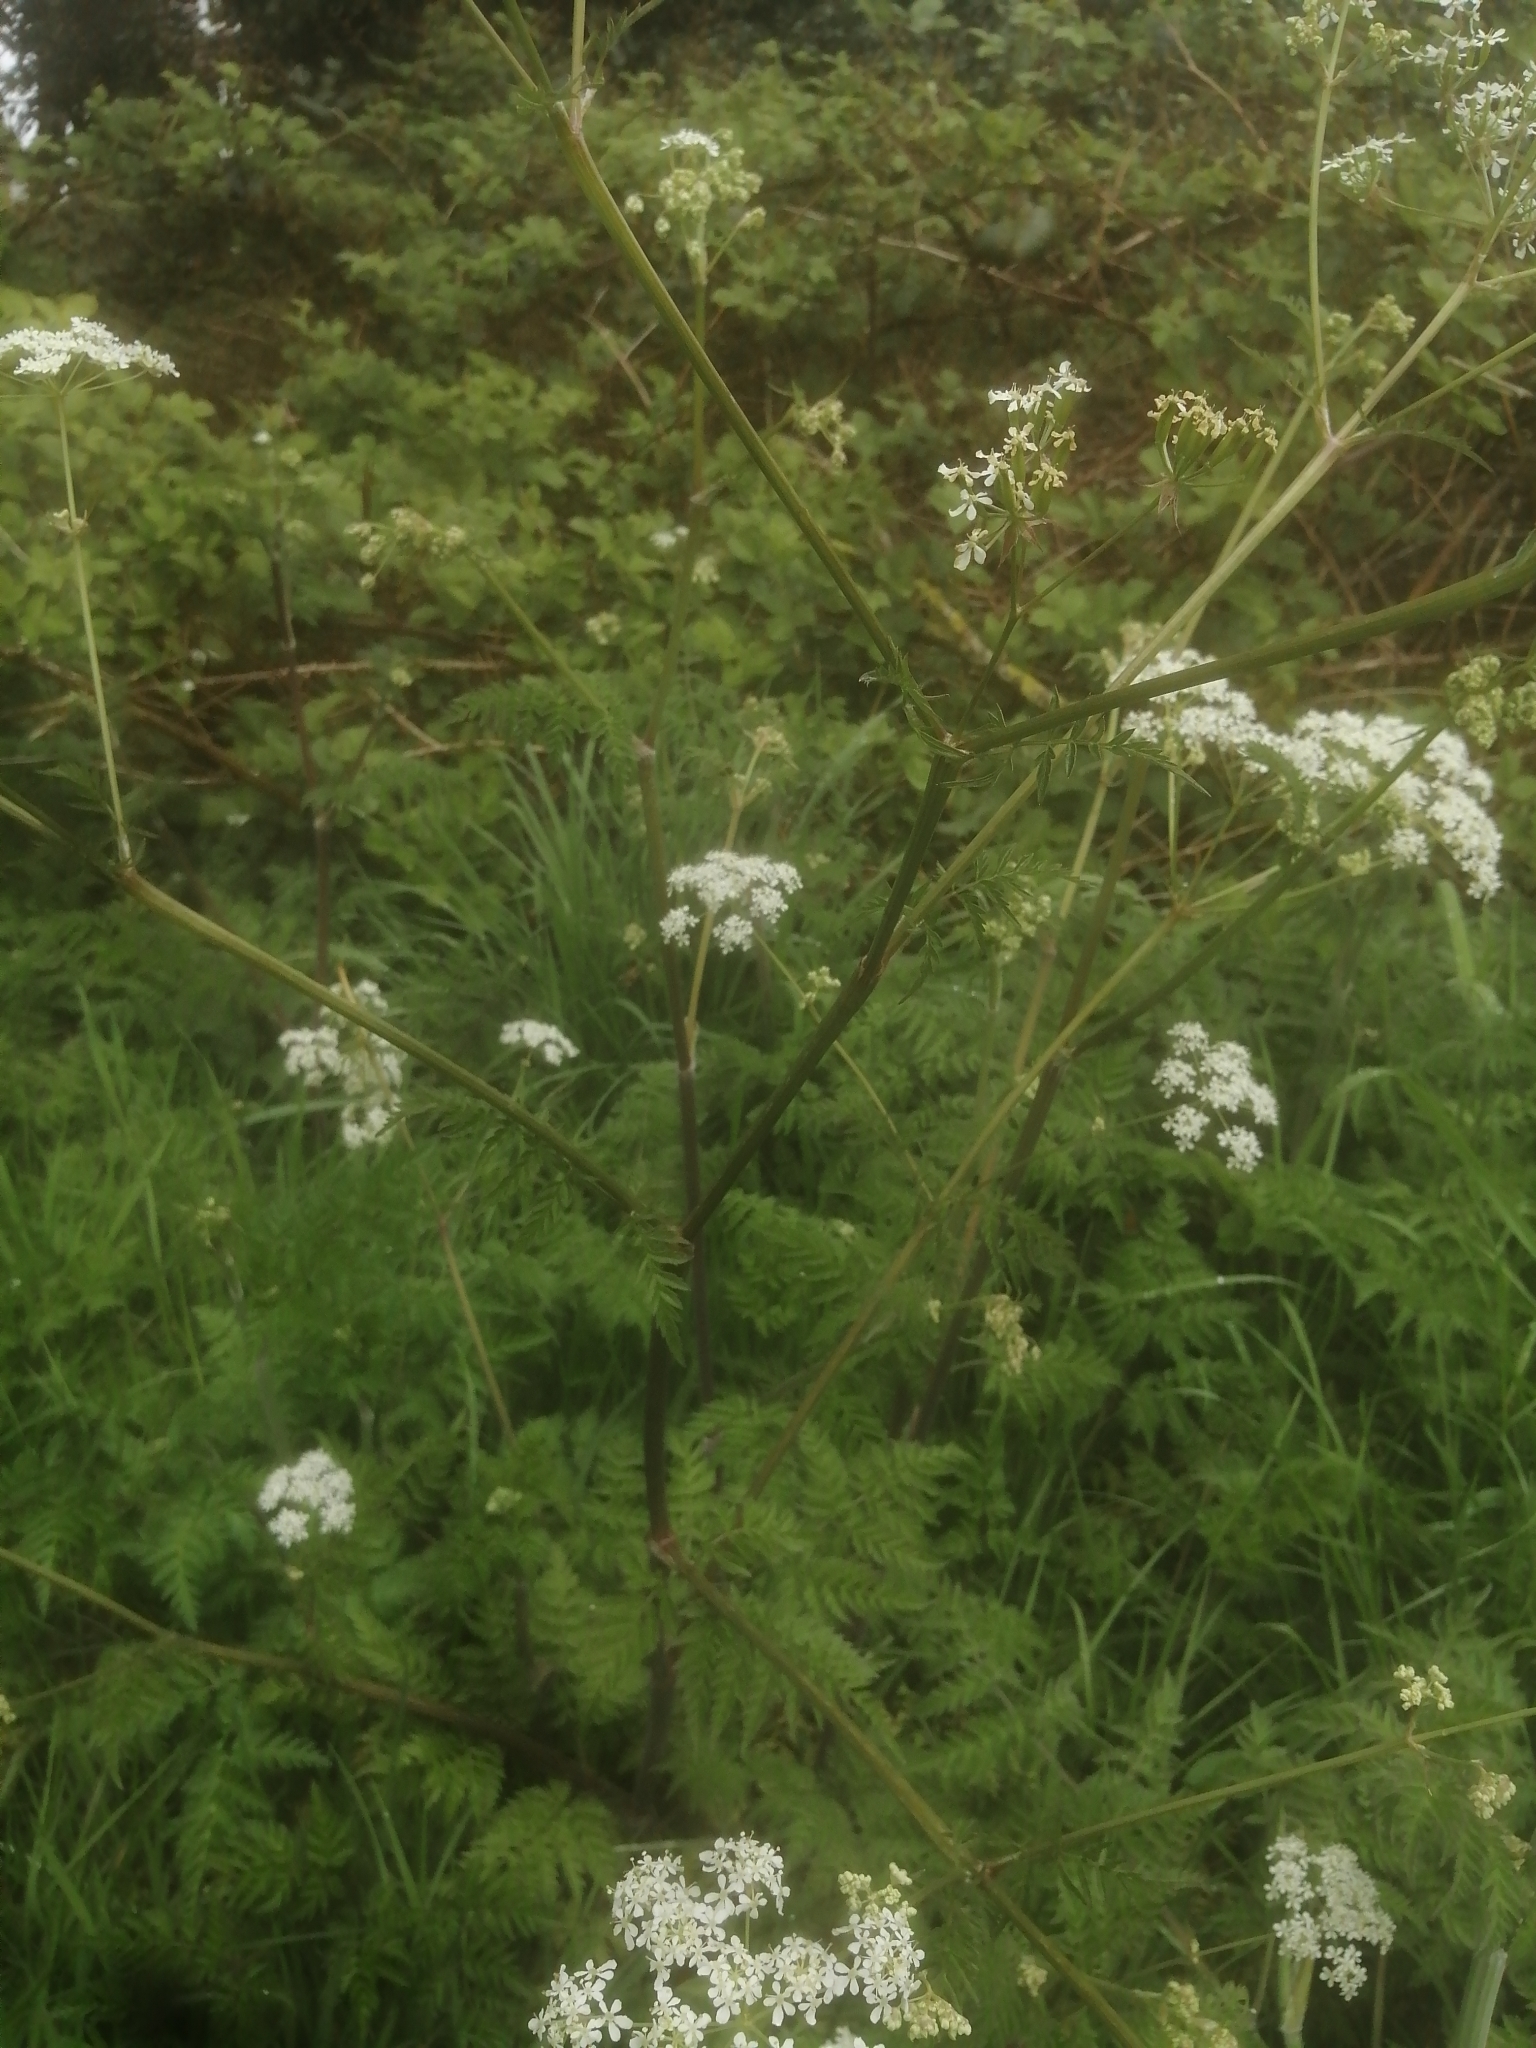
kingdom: Plantae
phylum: Tracheophyta
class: Magnoliopsida
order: Apiales
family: Apiaceae
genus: Anthriscus
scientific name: Anthriscus sylvestris
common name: Cow parsley
